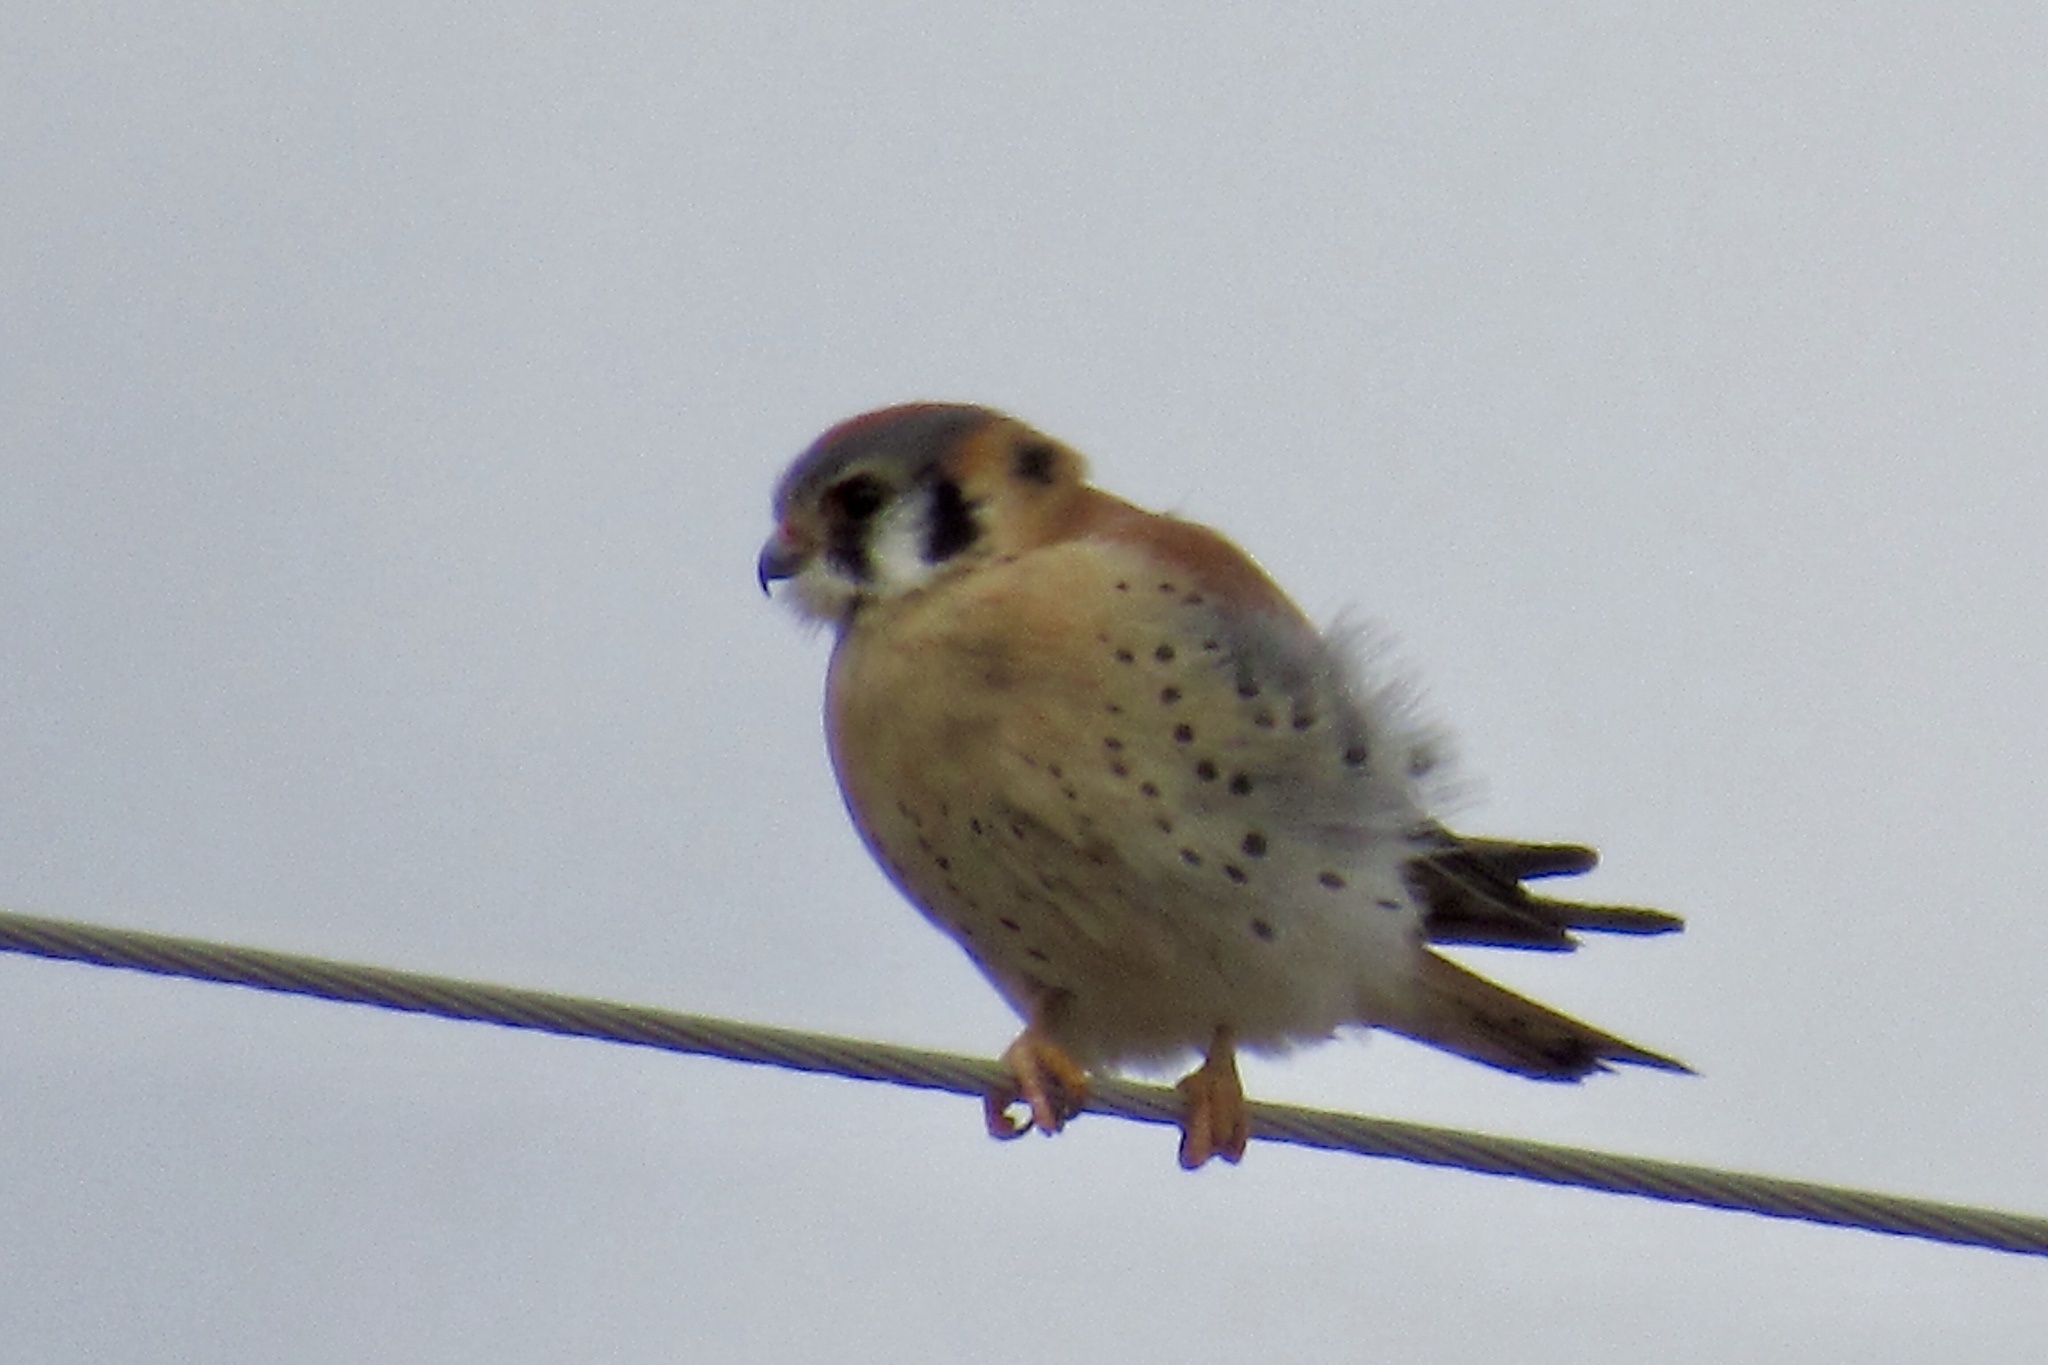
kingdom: Animalia
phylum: Chordata
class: Aves
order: Falconiformes
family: Falconidae
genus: Falco
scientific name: Falco sparverius
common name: American kestrel
